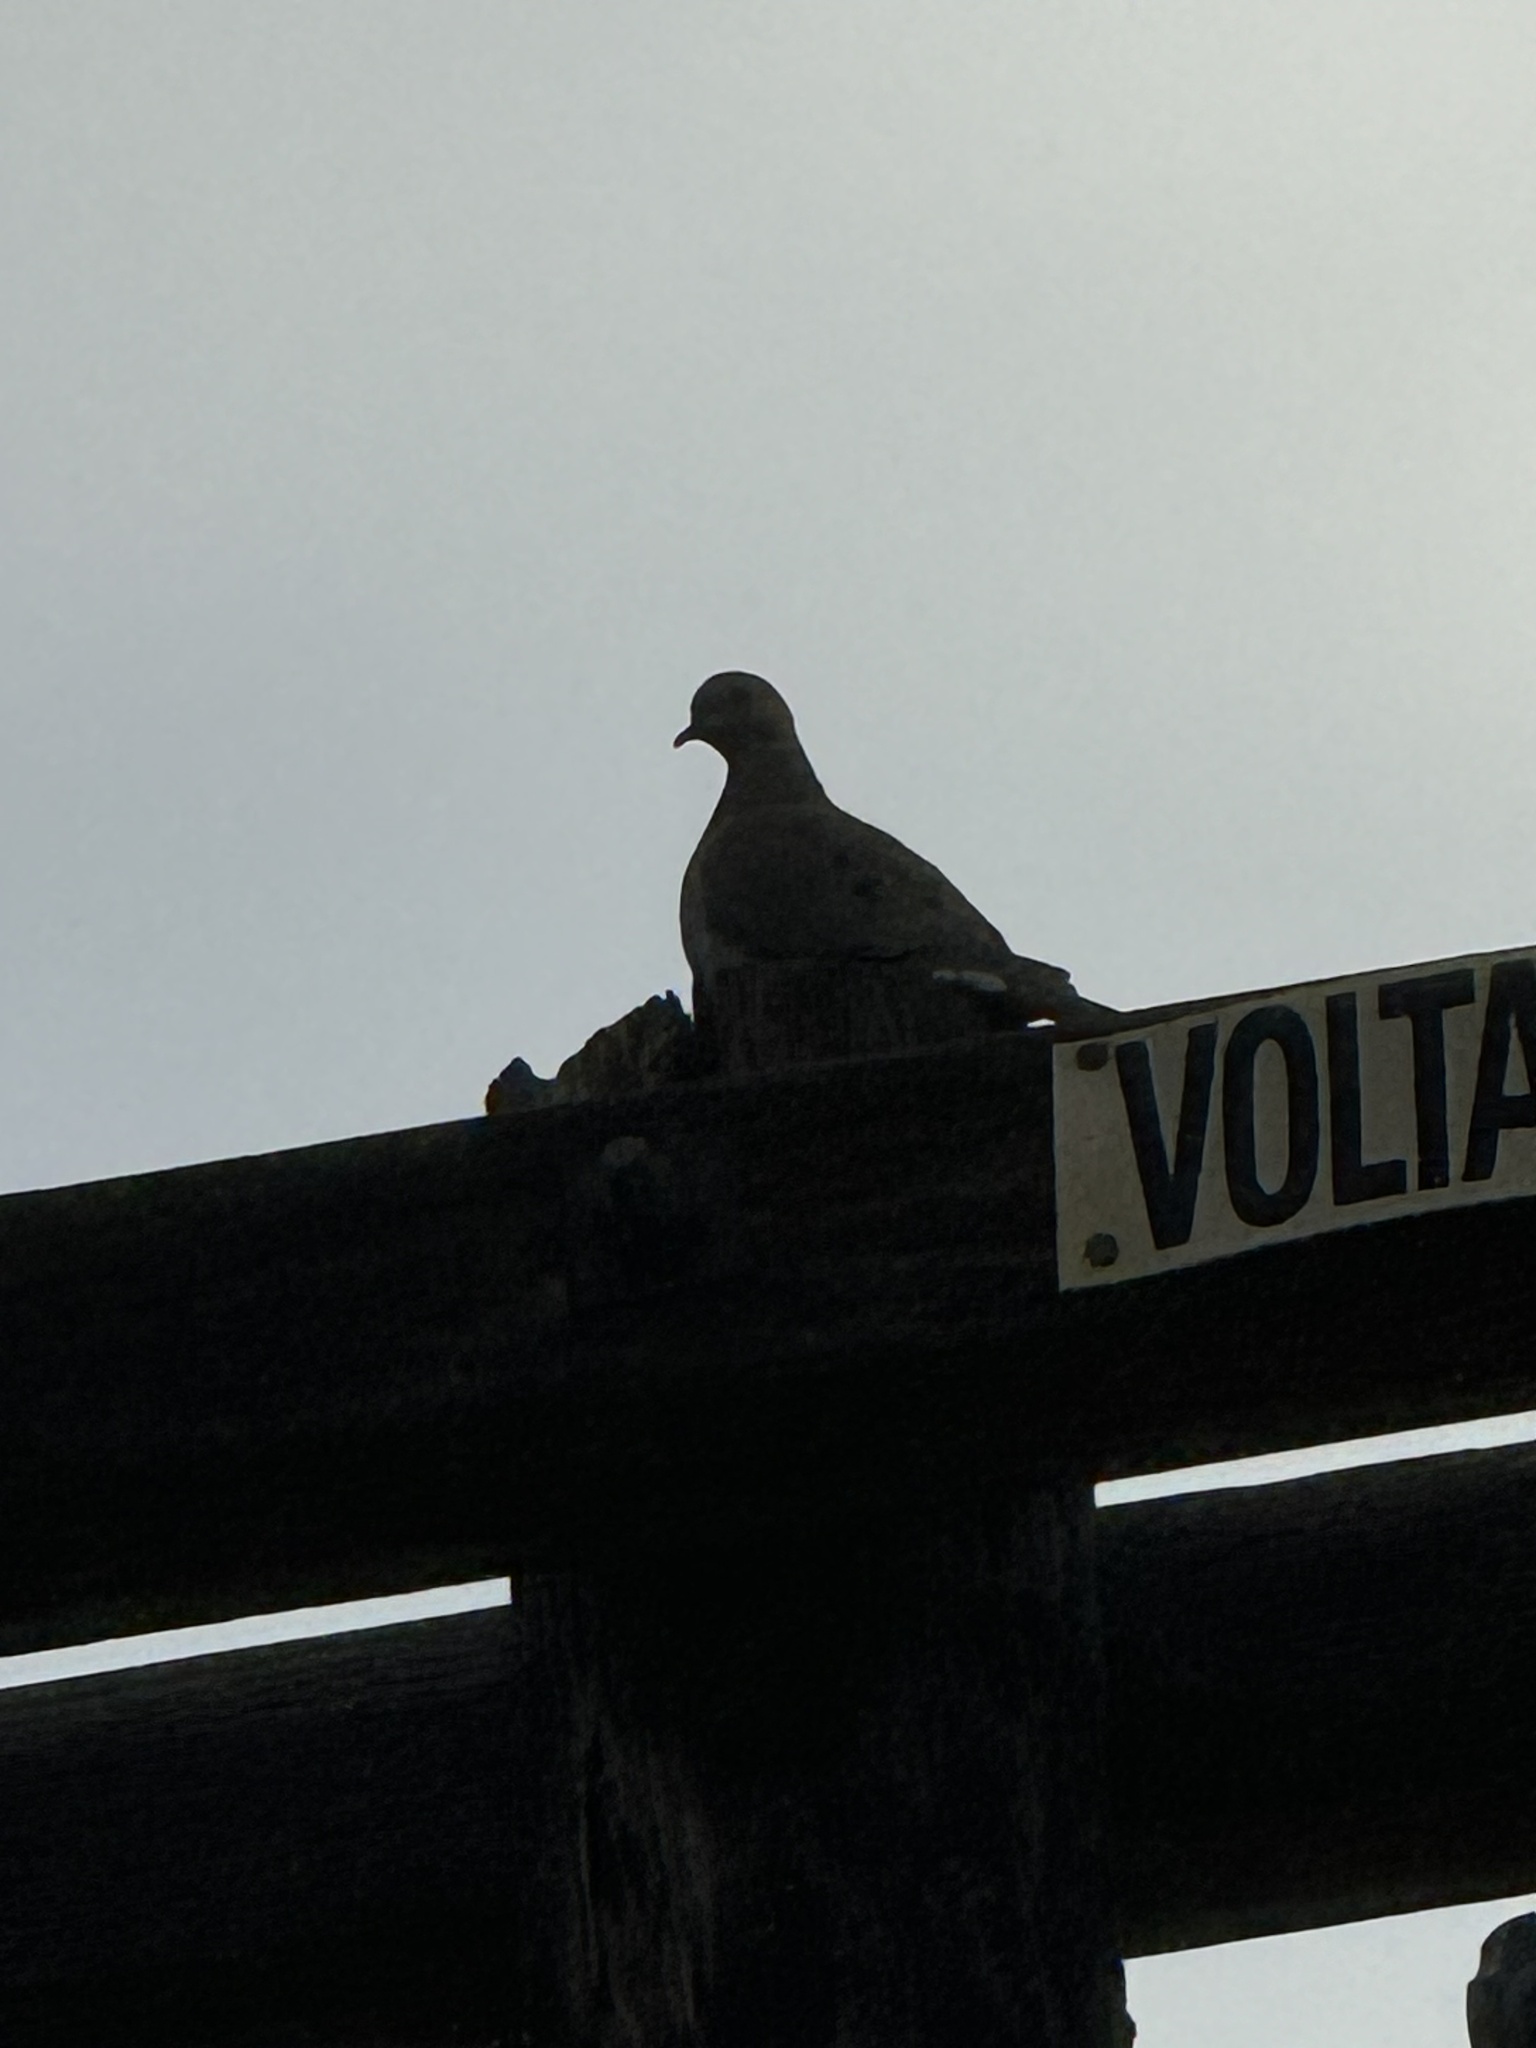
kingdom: Animalia
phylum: Chordata
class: Aves
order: Columbiformes
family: Columbidae
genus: Zenaida
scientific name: Zenaida macroura
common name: Mourning dove
